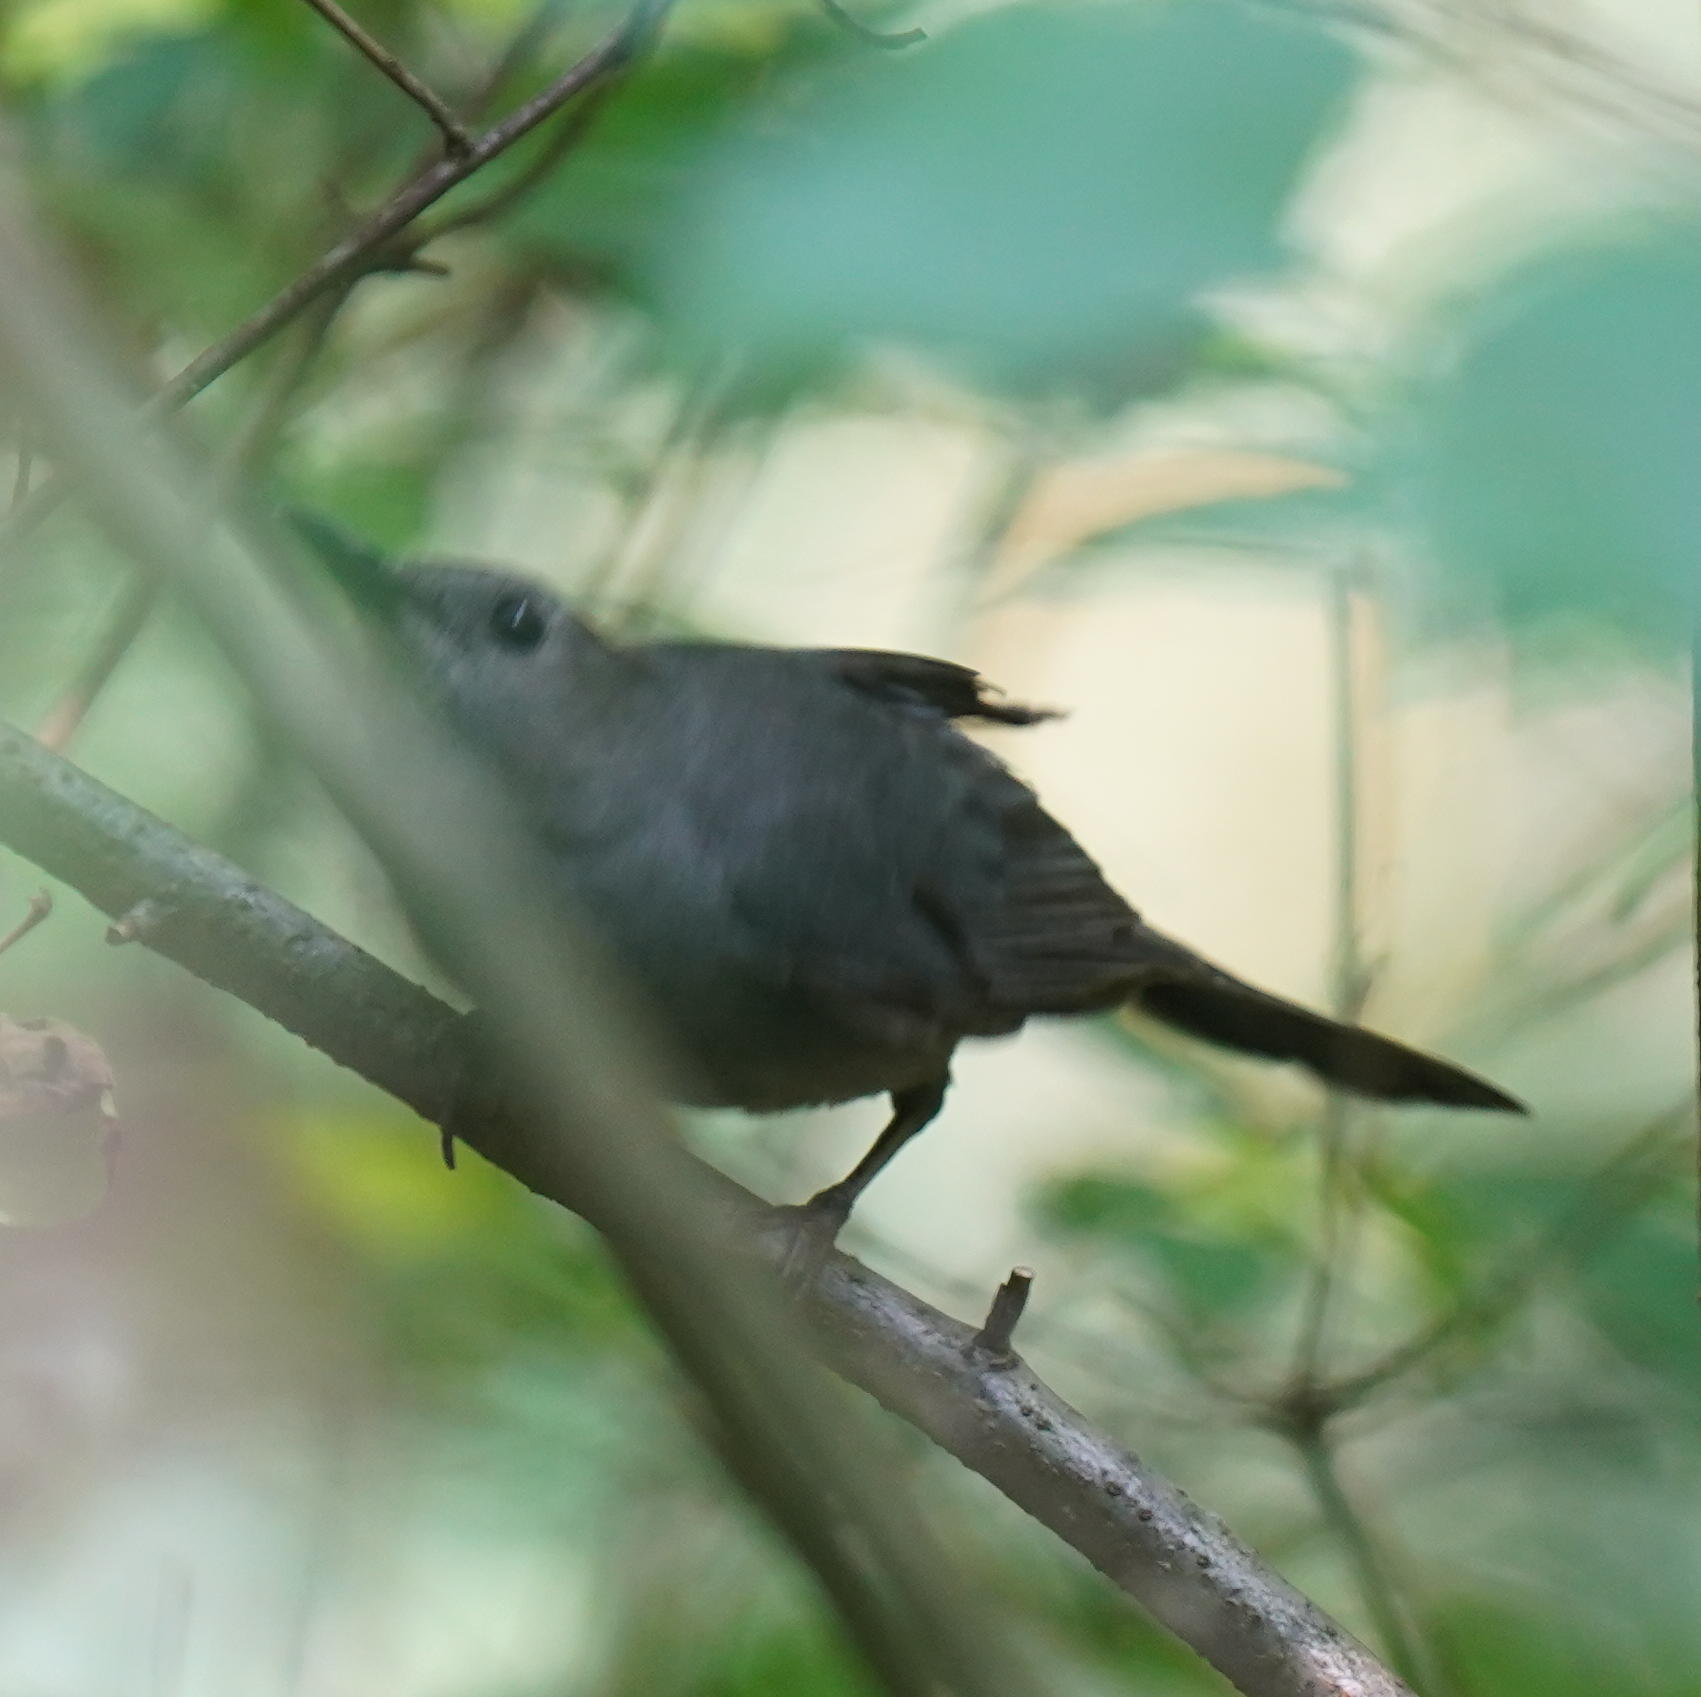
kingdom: Animalia
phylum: Chordata
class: Aves
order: Passeriformes
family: Mimidae
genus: Dumetella
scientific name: Dumetella carolinensis
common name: Gray catbird
